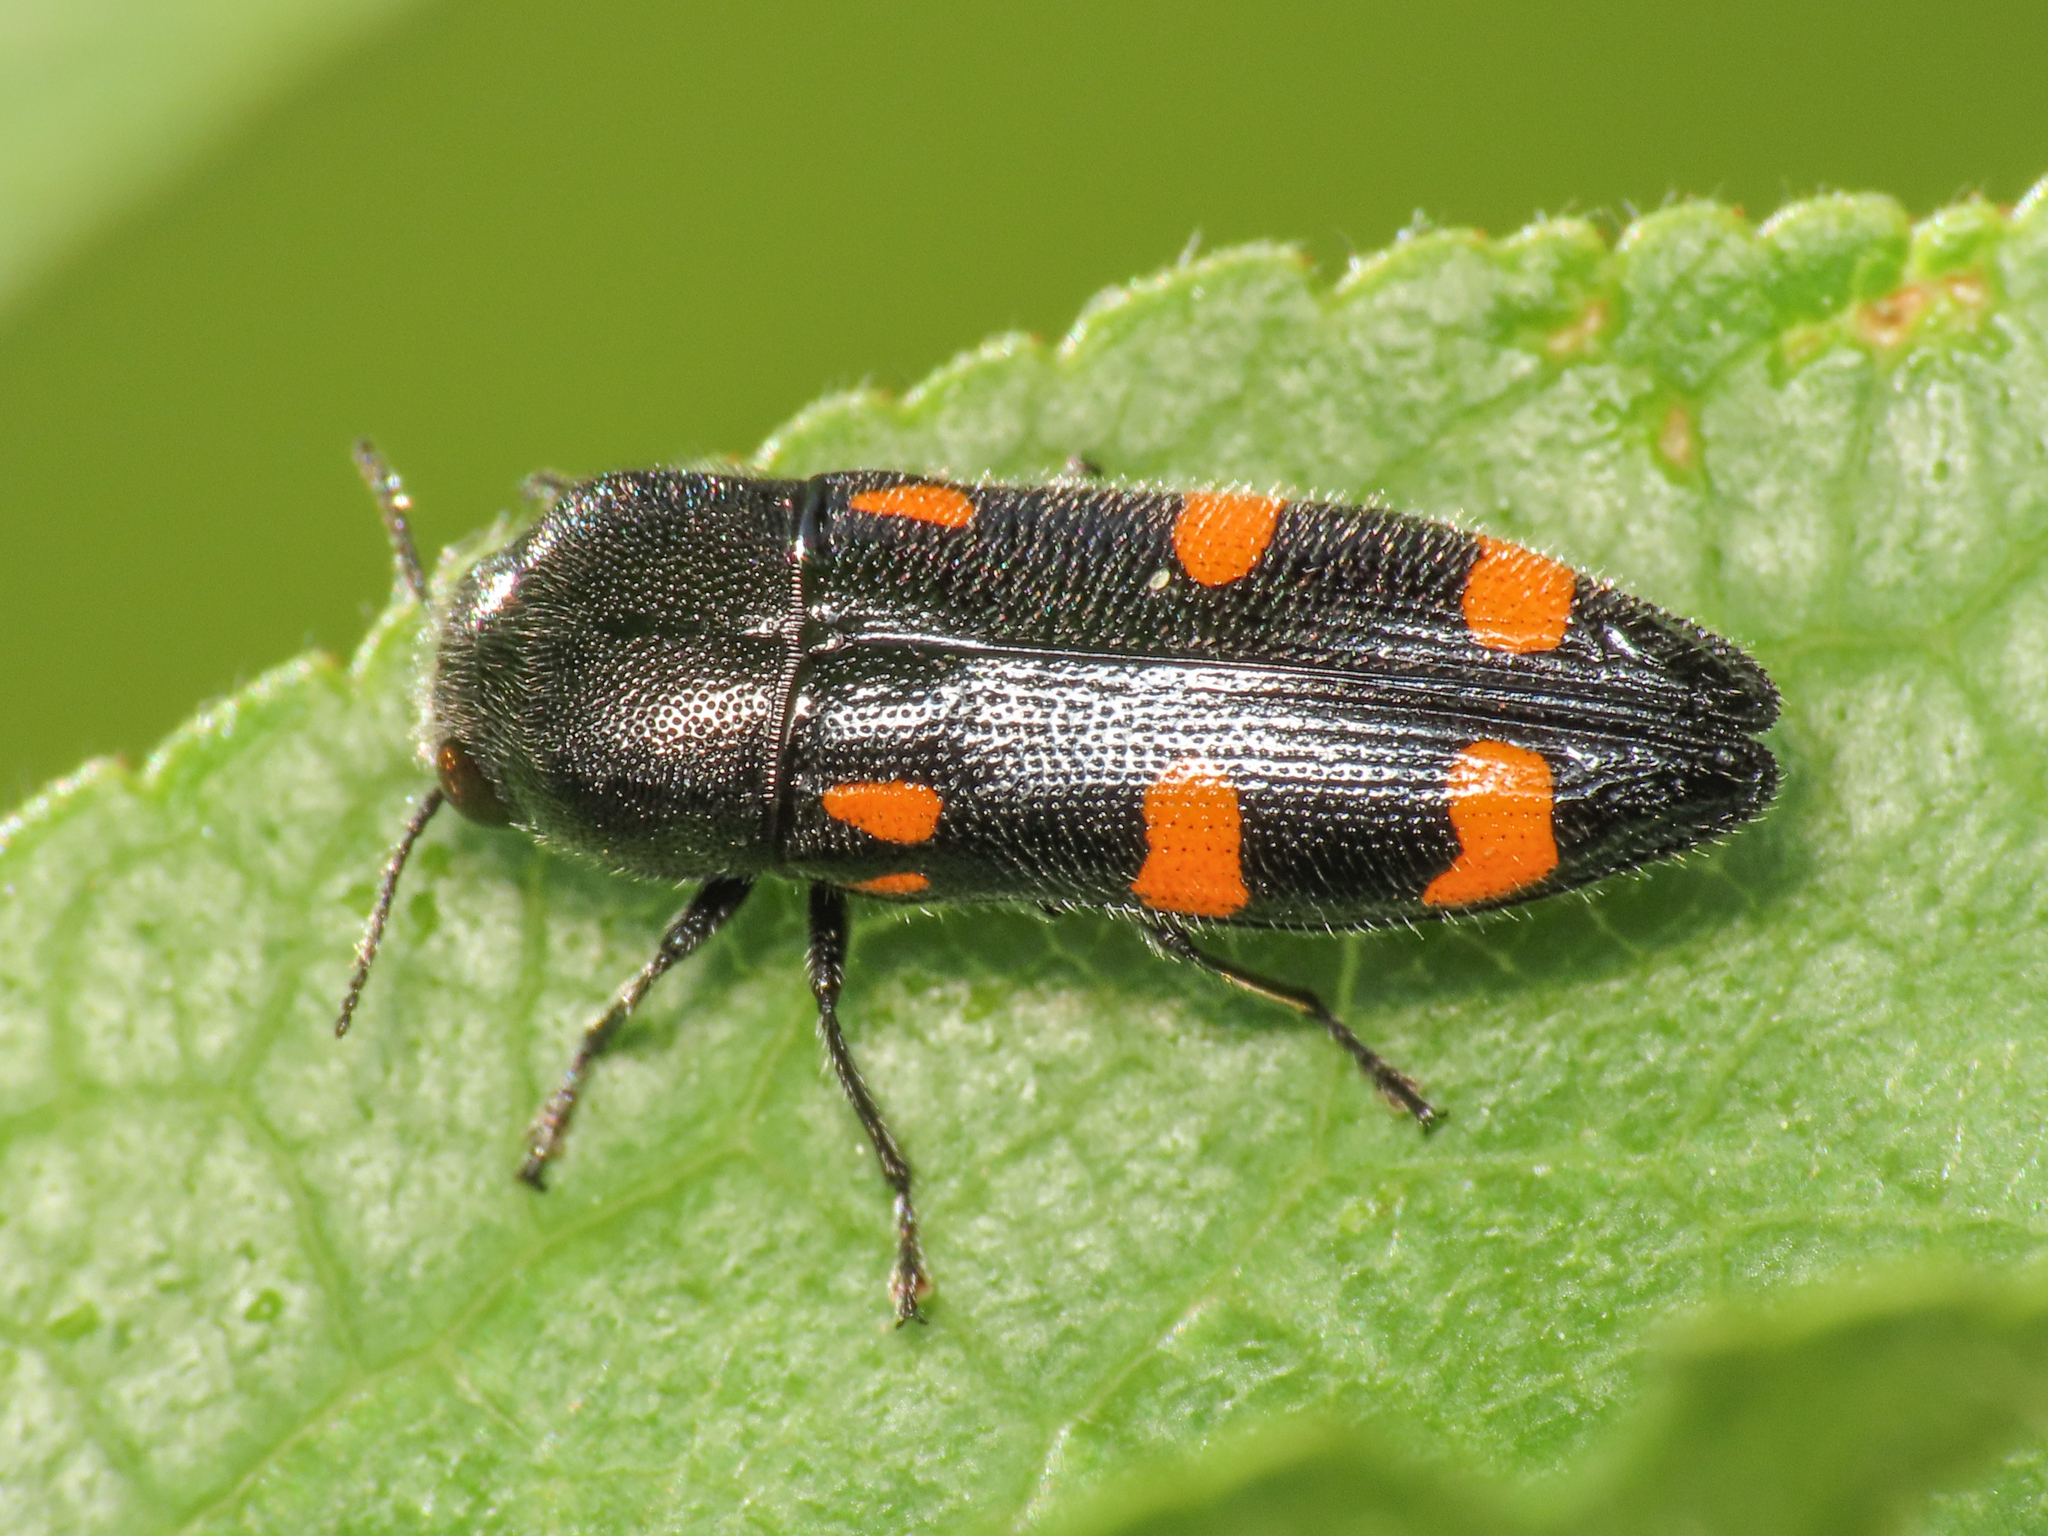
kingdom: Animalia
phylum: Arthropoda
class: Insecta
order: Coleoptera
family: Buprestidae
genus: Ptosima
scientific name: Ptosima undecimmaculata
